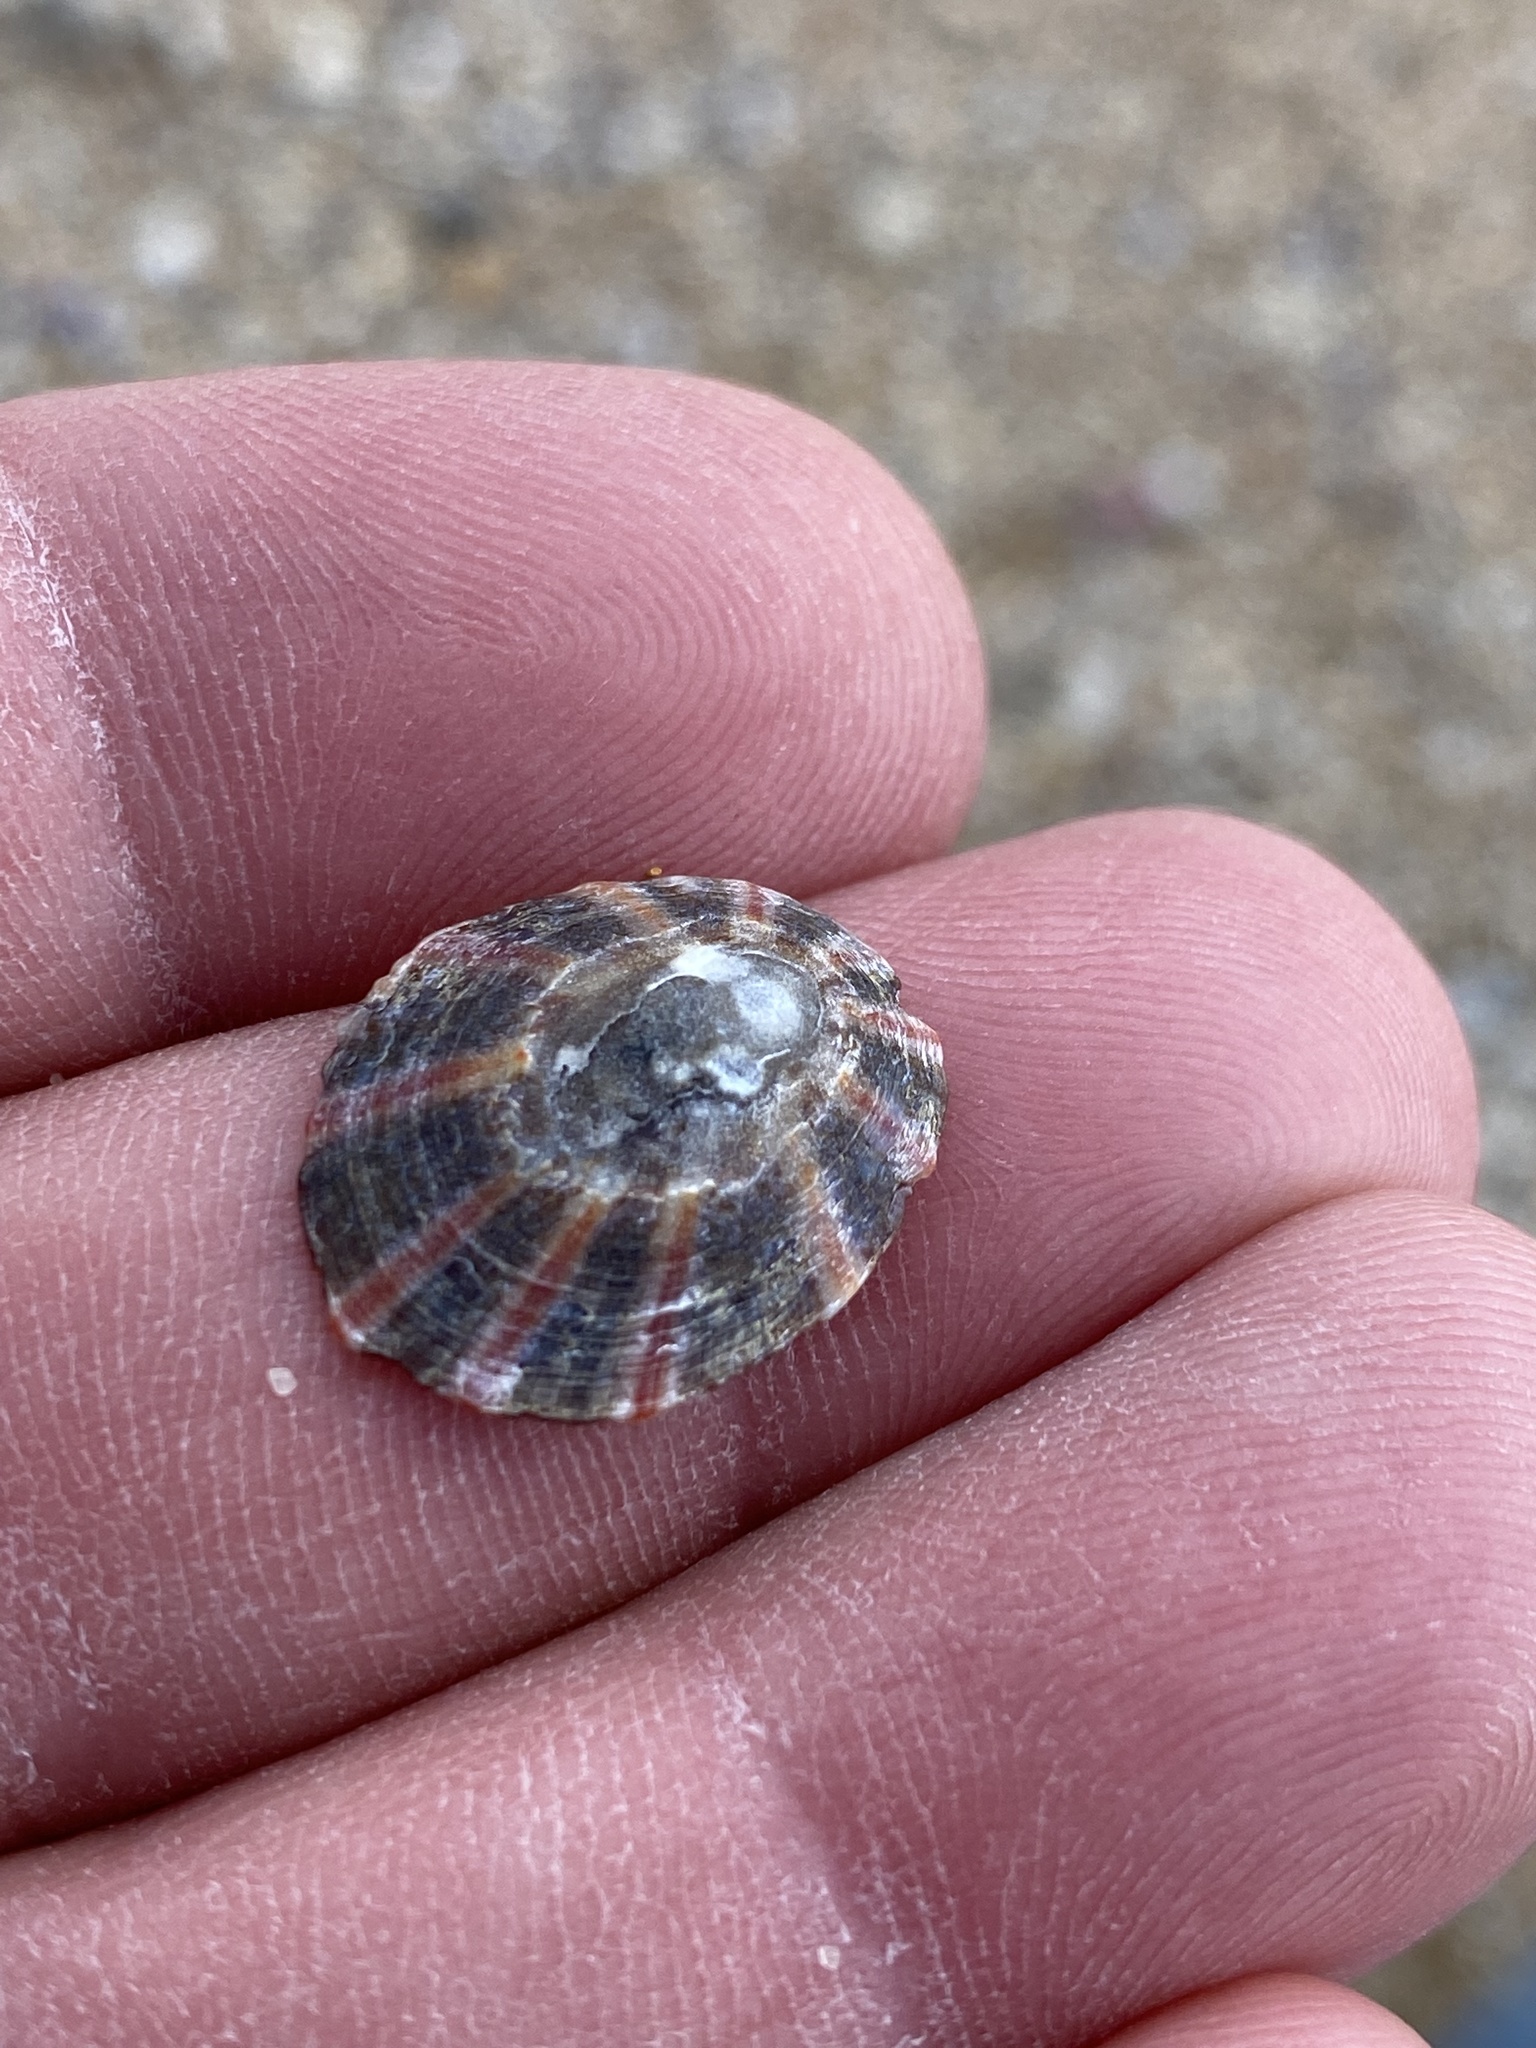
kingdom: Animalia
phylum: Mollusca
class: Gastropoda
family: Nacellidae
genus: Cellana
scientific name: Cellana tramoserica
